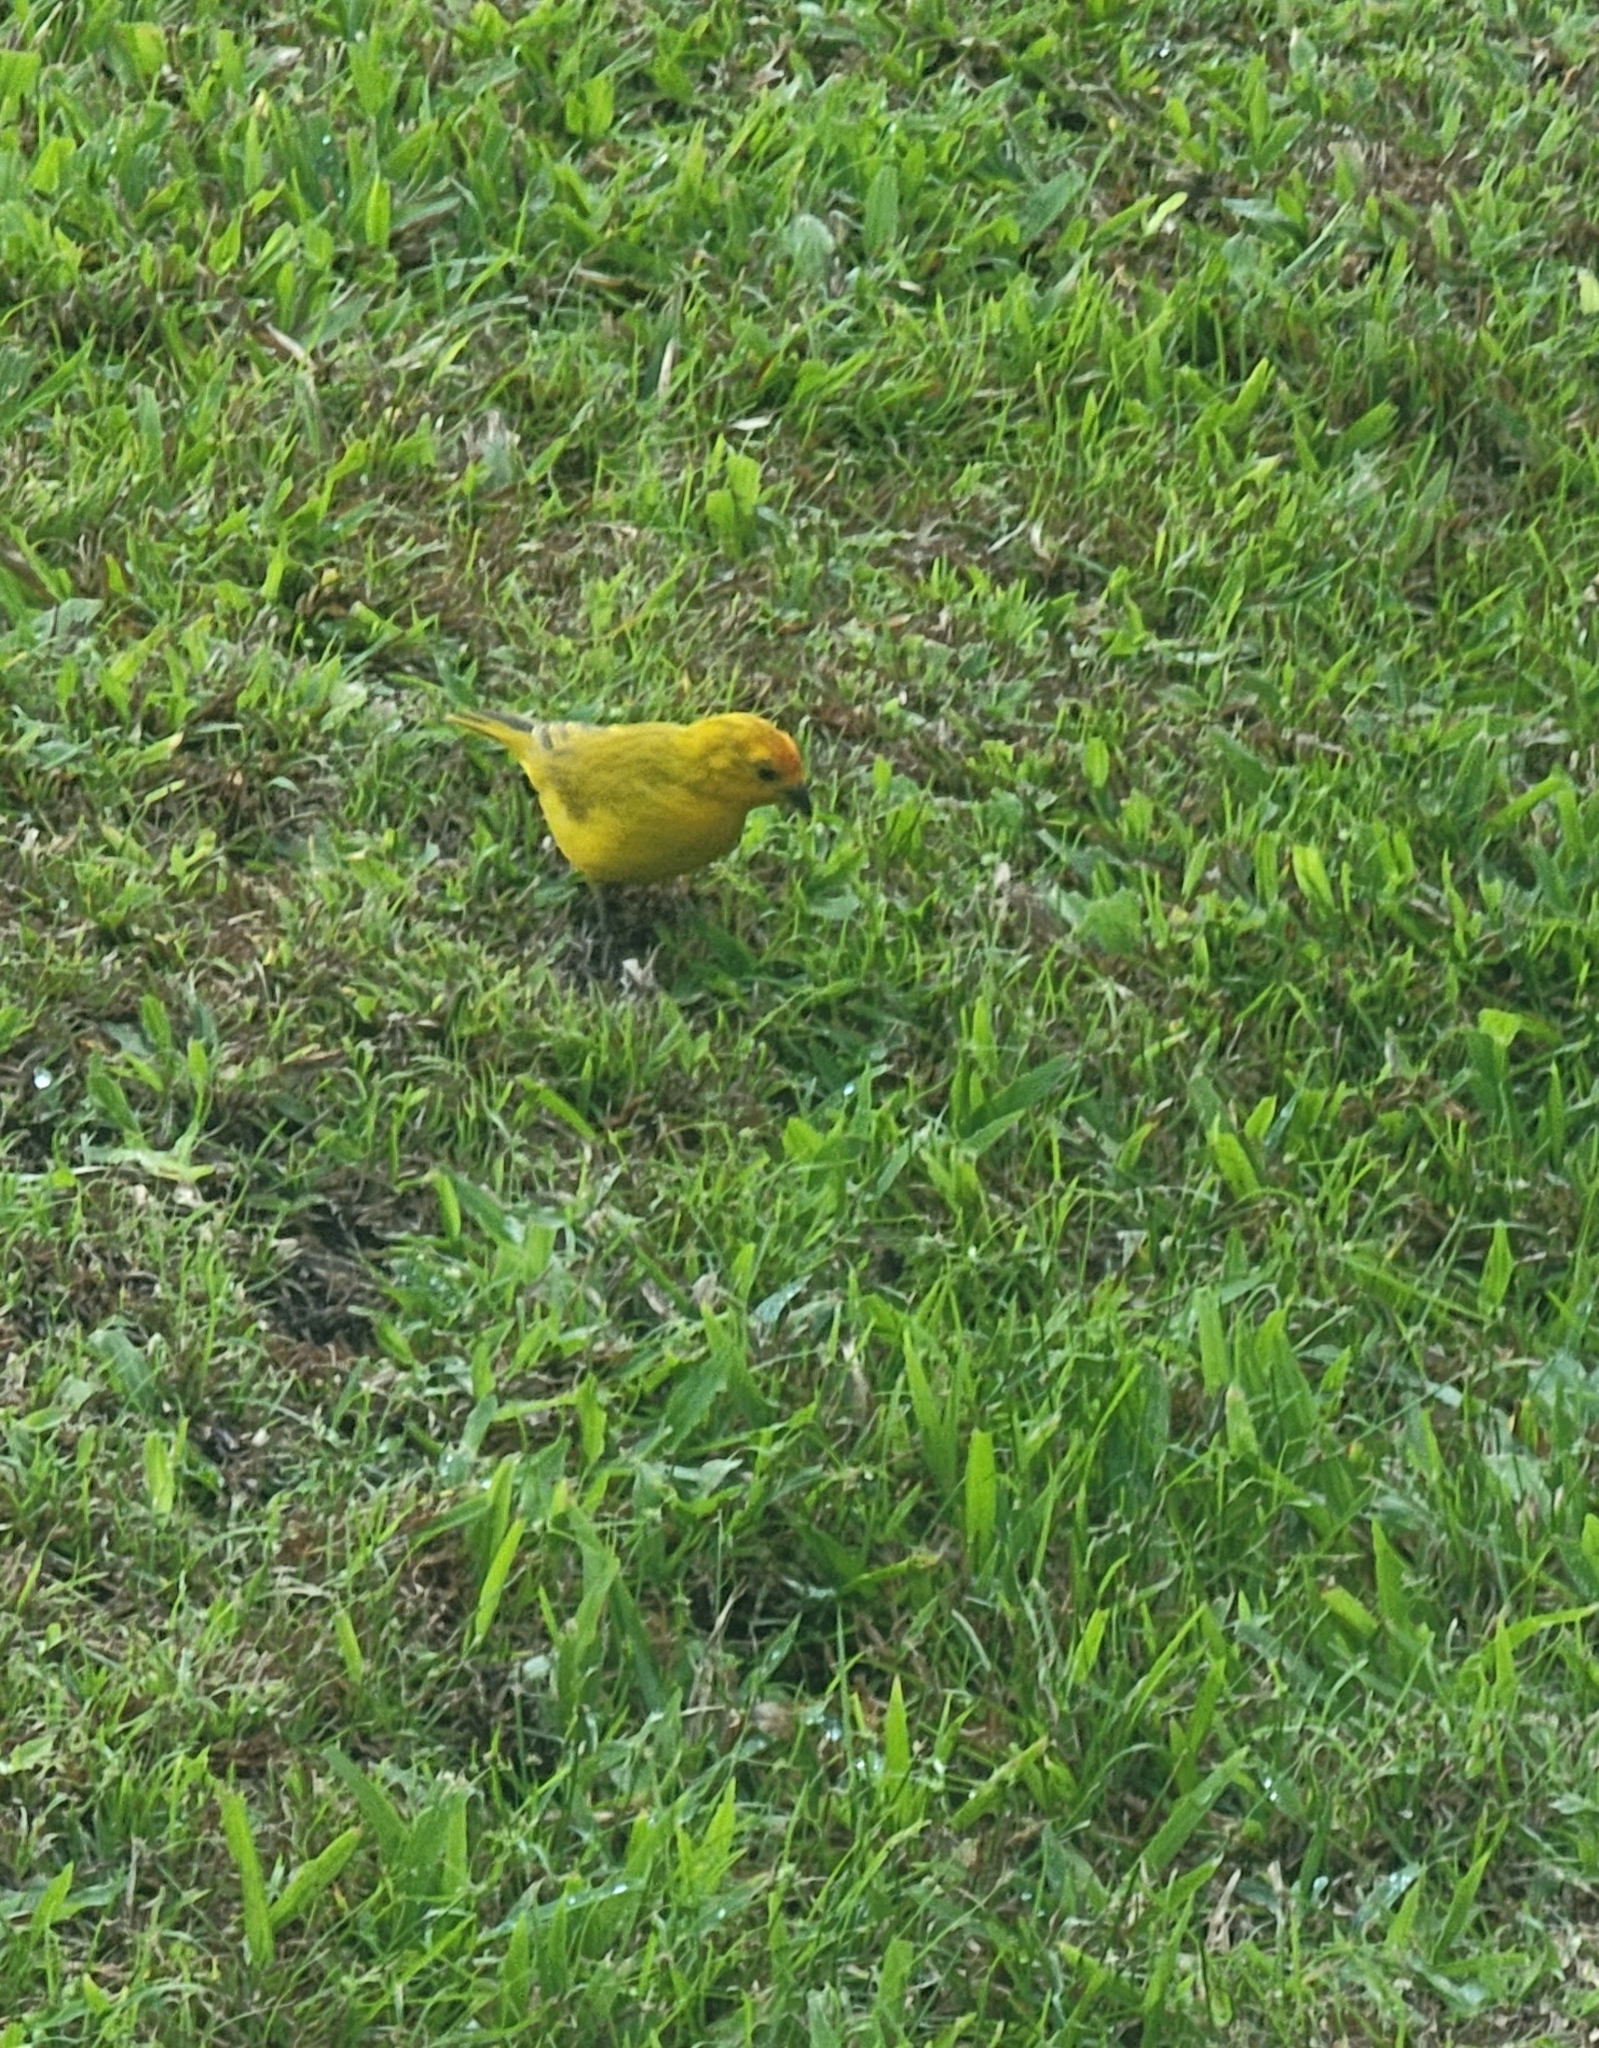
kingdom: Animalia
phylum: Chordata
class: Aves
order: Passeriformes
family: Thraupidae
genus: Sicalis
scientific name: Sicalis flaveola
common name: Saffron finch
